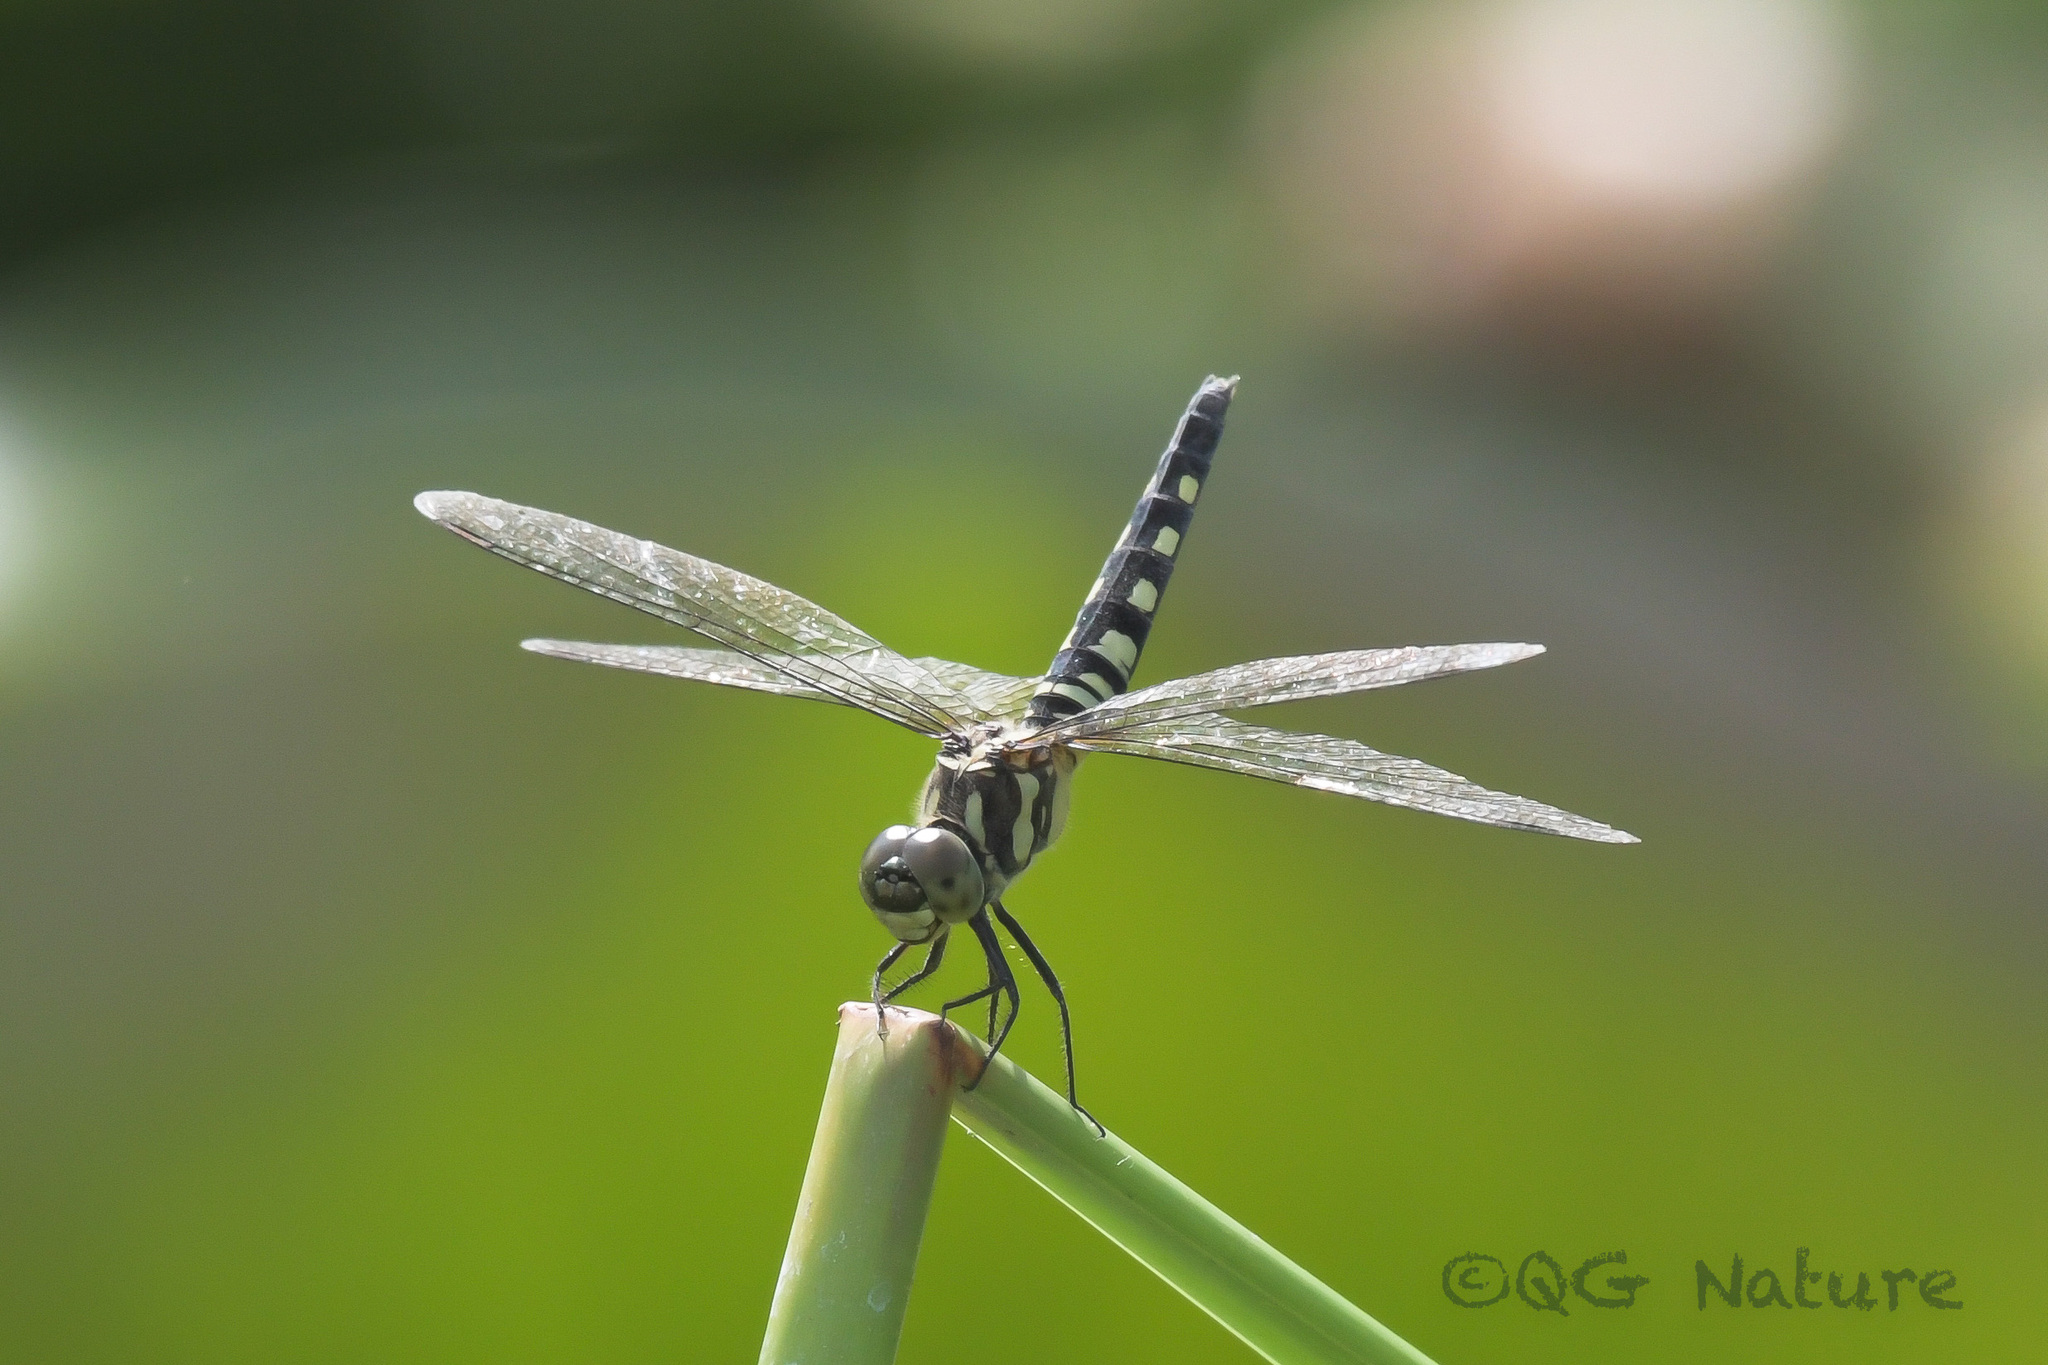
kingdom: Animalia
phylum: Arthropoda
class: Insecta
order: Odonata
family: Libellulidae
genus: Brachydiplax
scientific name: Brachydiplax chalybea
